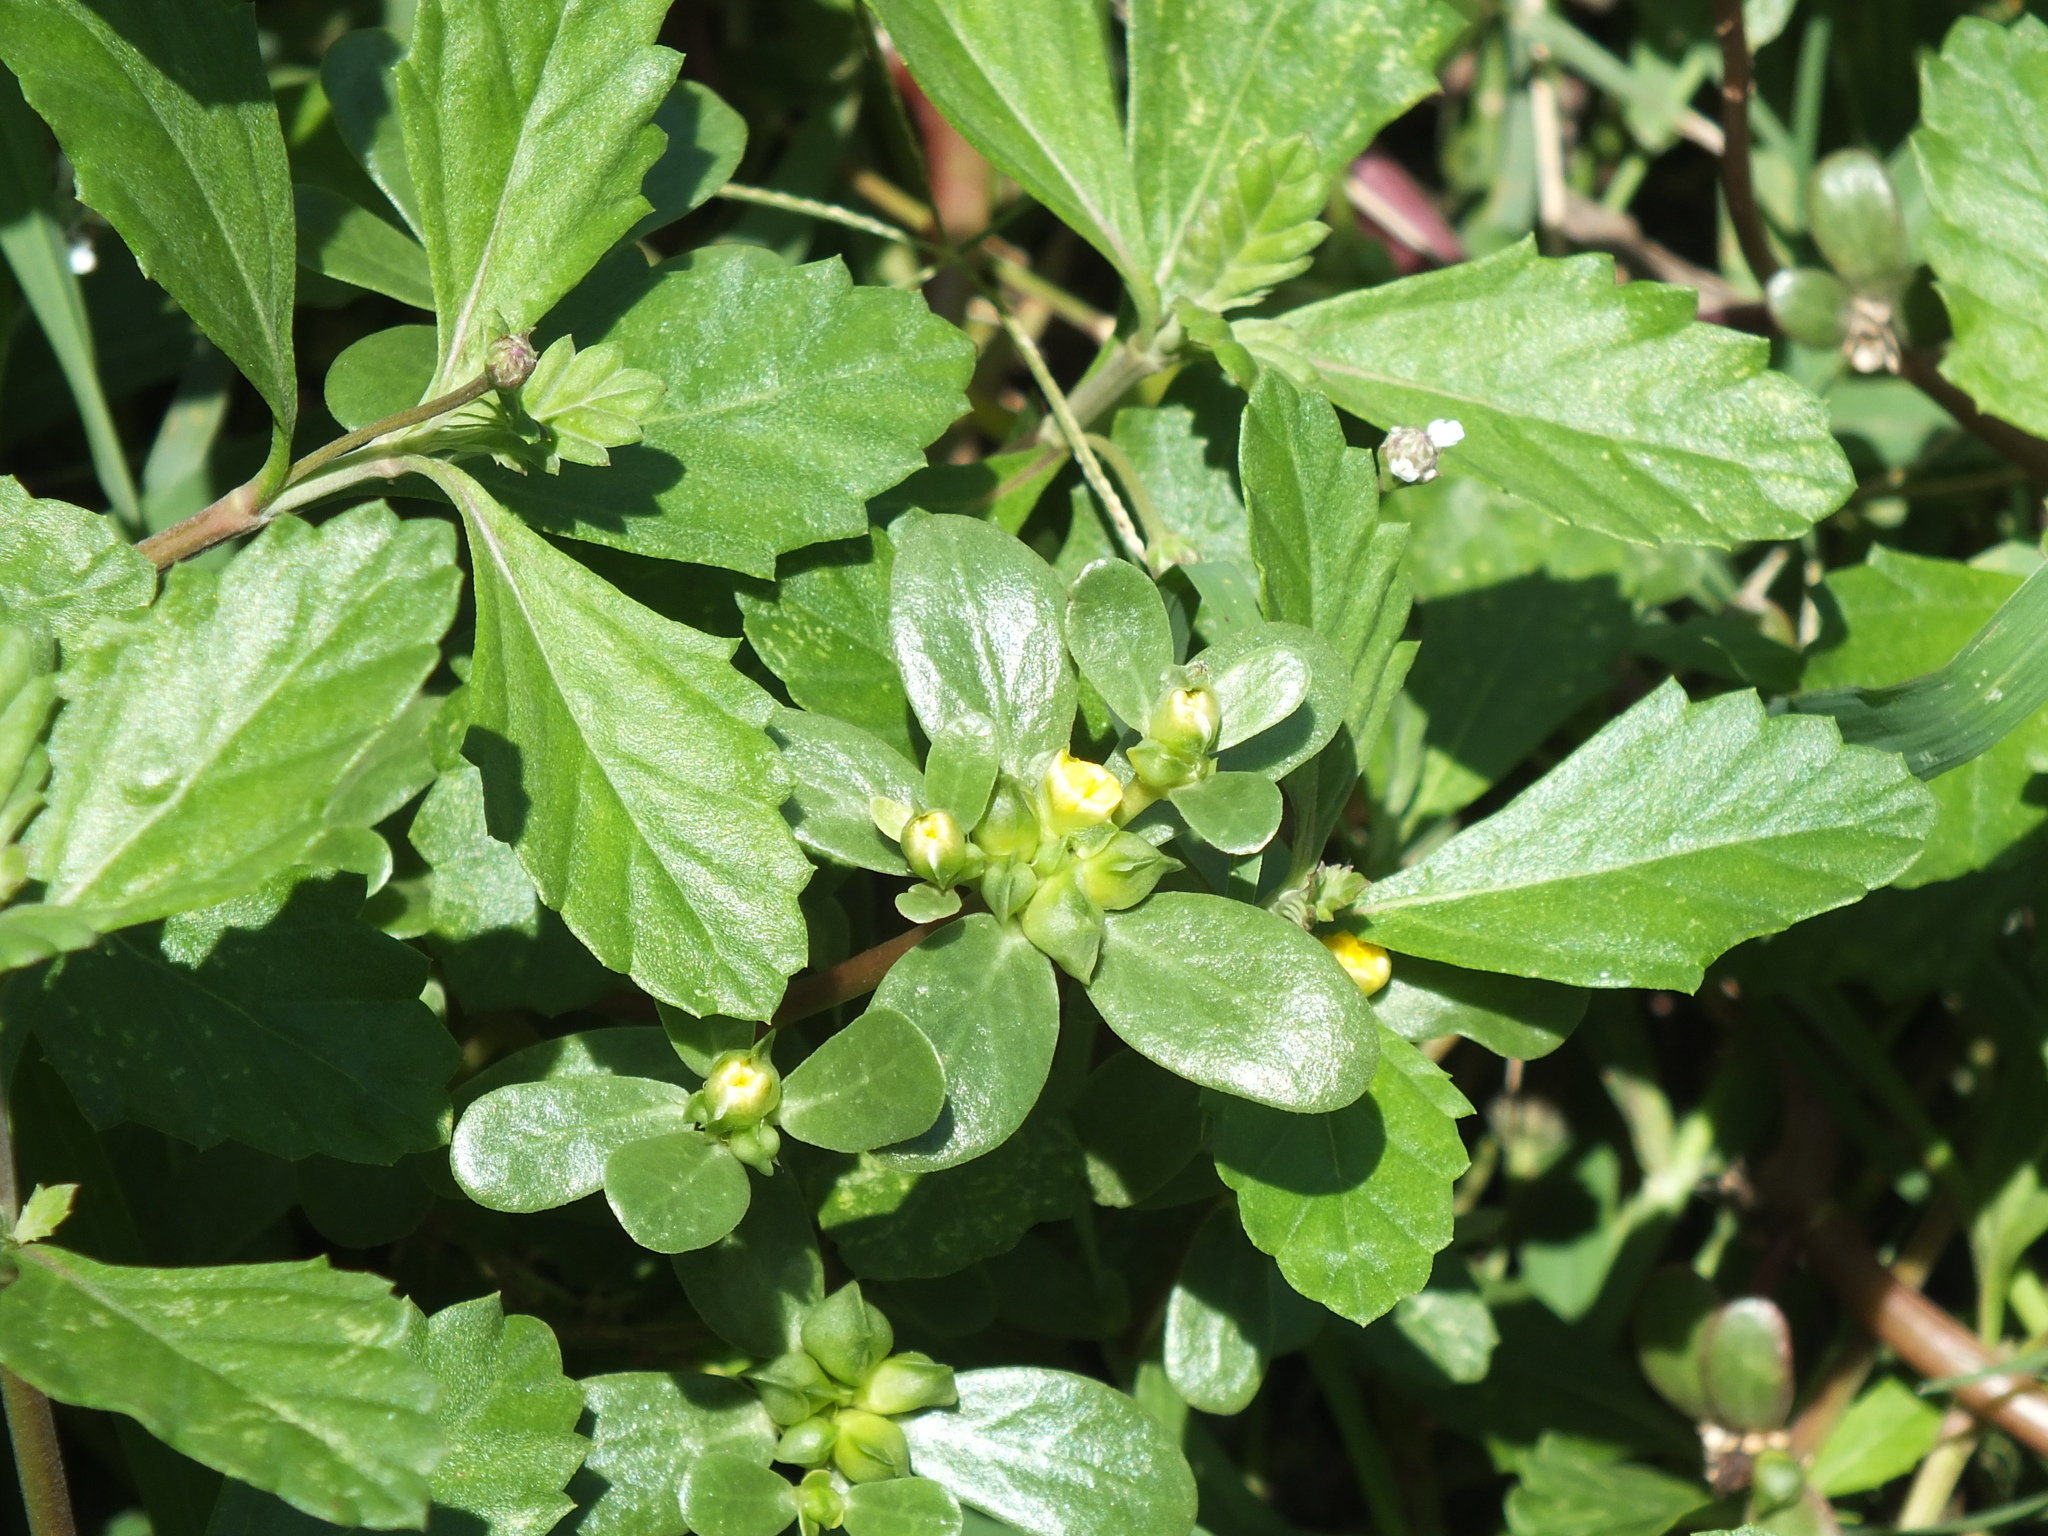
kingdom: Plantae
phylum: Tracheophyta
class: Magnoliopsida
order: Caryophyllales
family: Portulacaceae
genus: Portulaca
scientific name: Portulaca oleracea
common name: Common purslane
